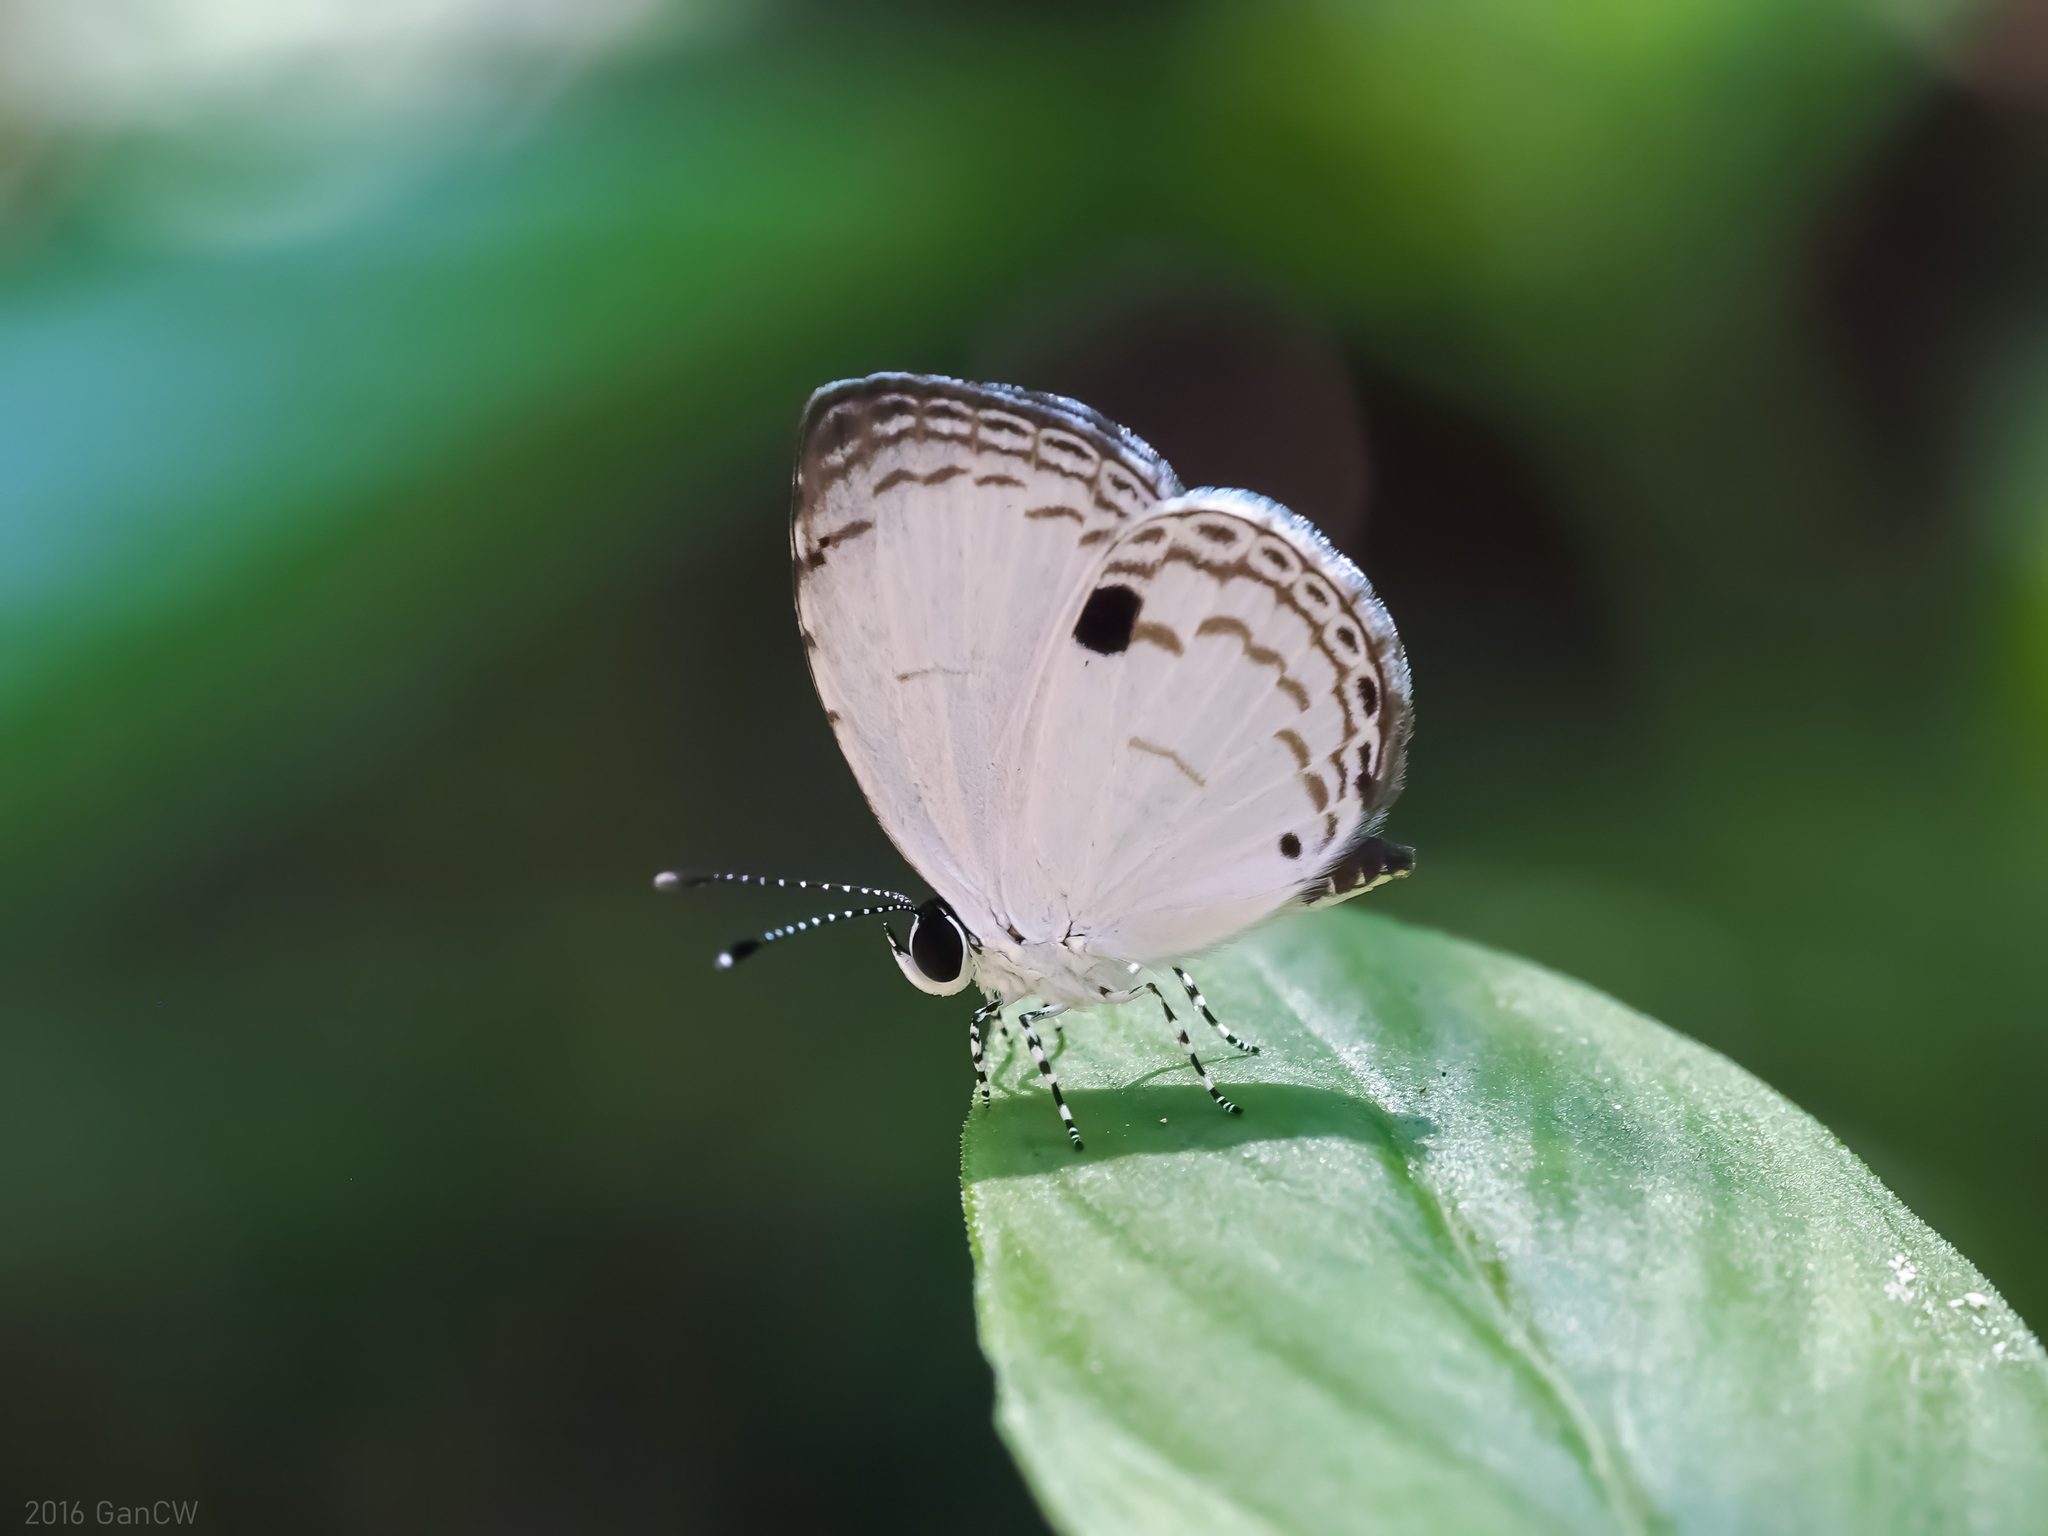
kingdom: Animalia
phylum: Arthropoda
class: Insecta
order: Lepidoptera
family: Lycaenidae
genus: Neopithecops
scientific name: Neopithecops zalmora
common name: Quaker
